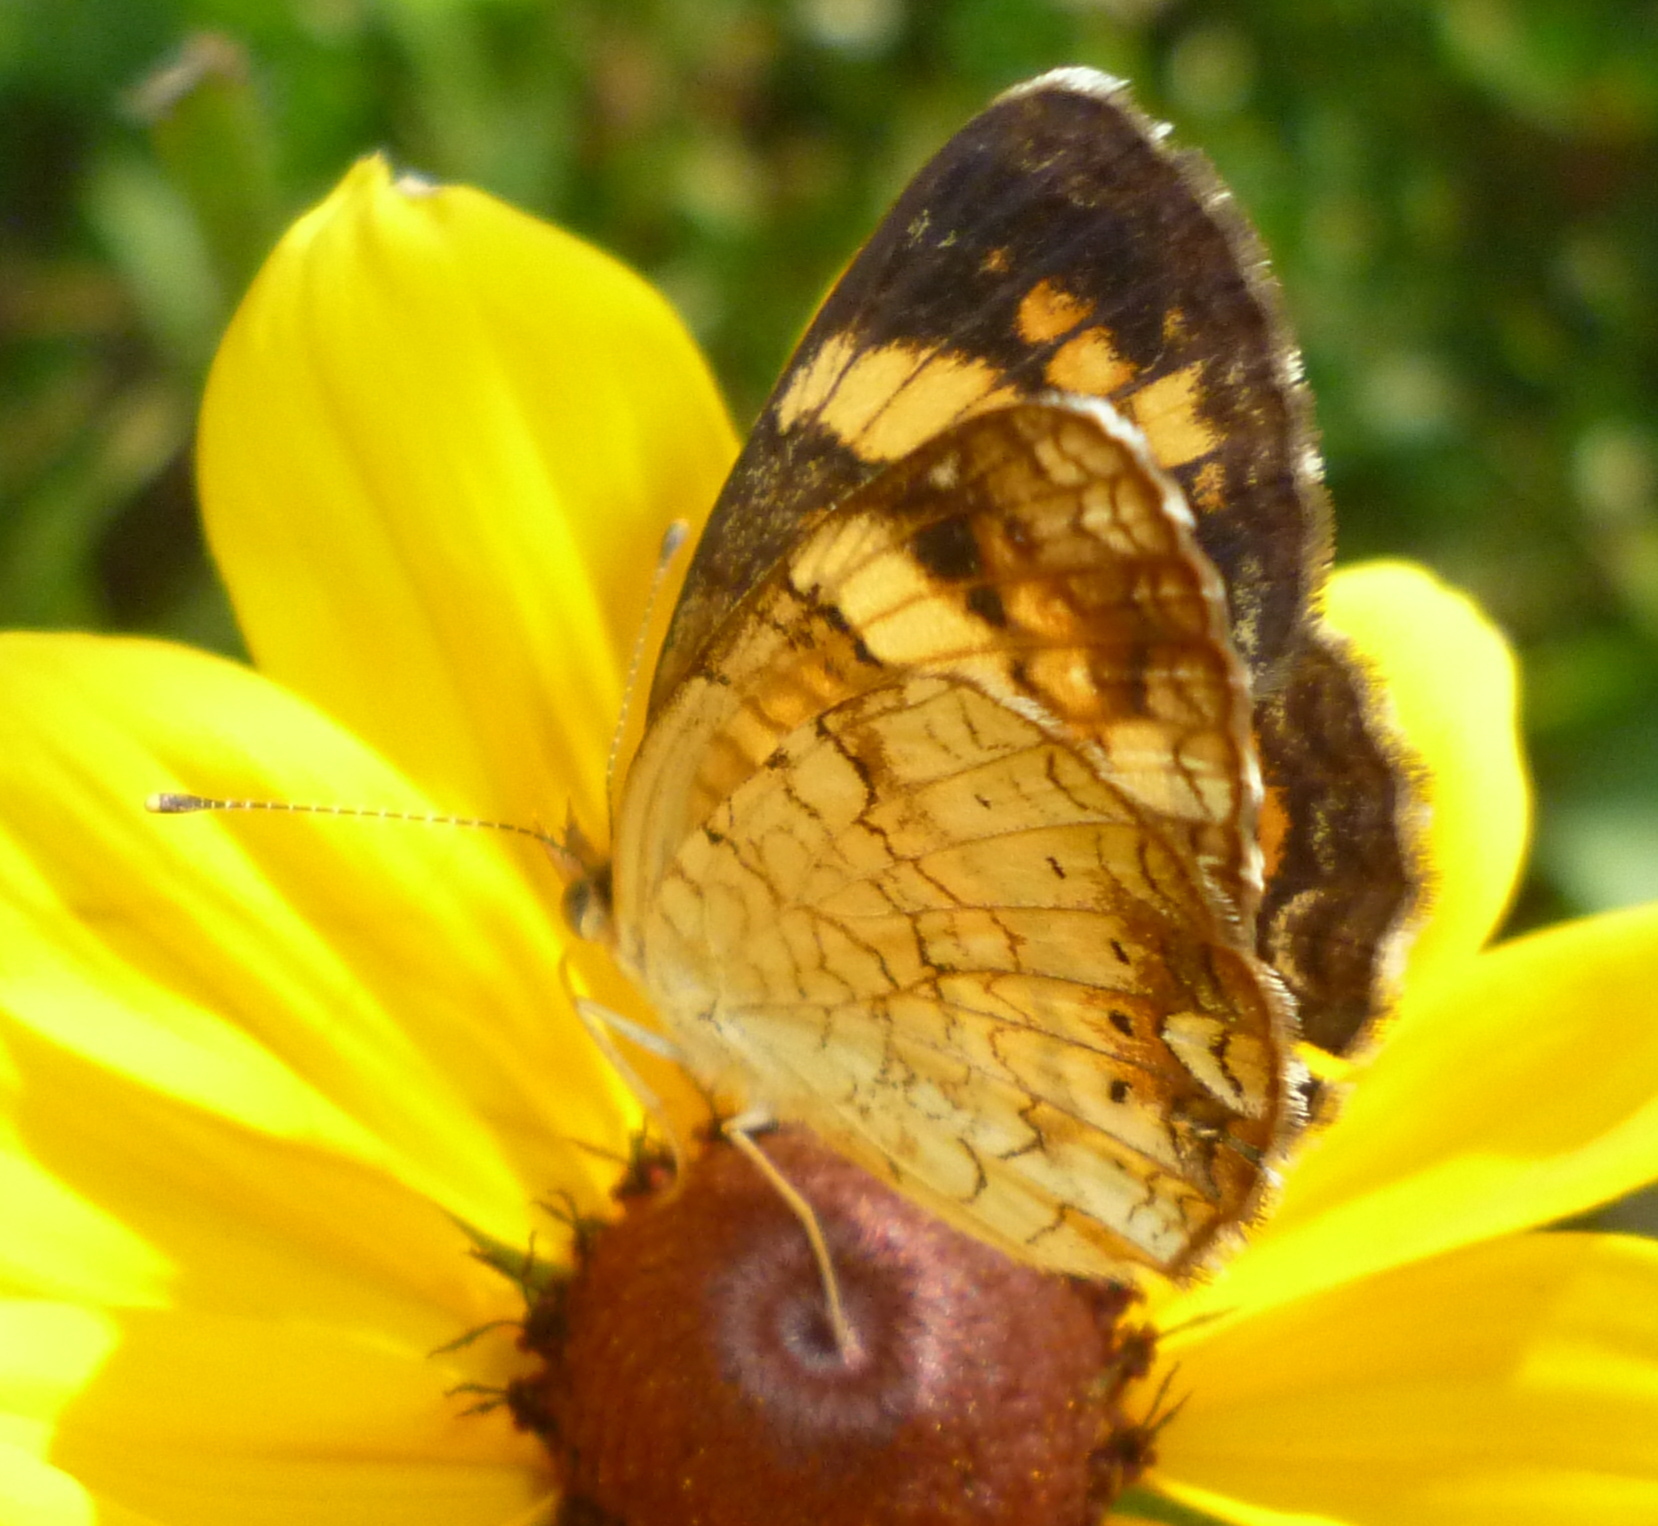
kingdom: Animalia
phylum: Arthropoda
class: Insecta
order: Lepidoptera
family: Nymphalidae
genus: Phyciodes
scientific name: Phyciodes tharos
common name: Pearl crescent
